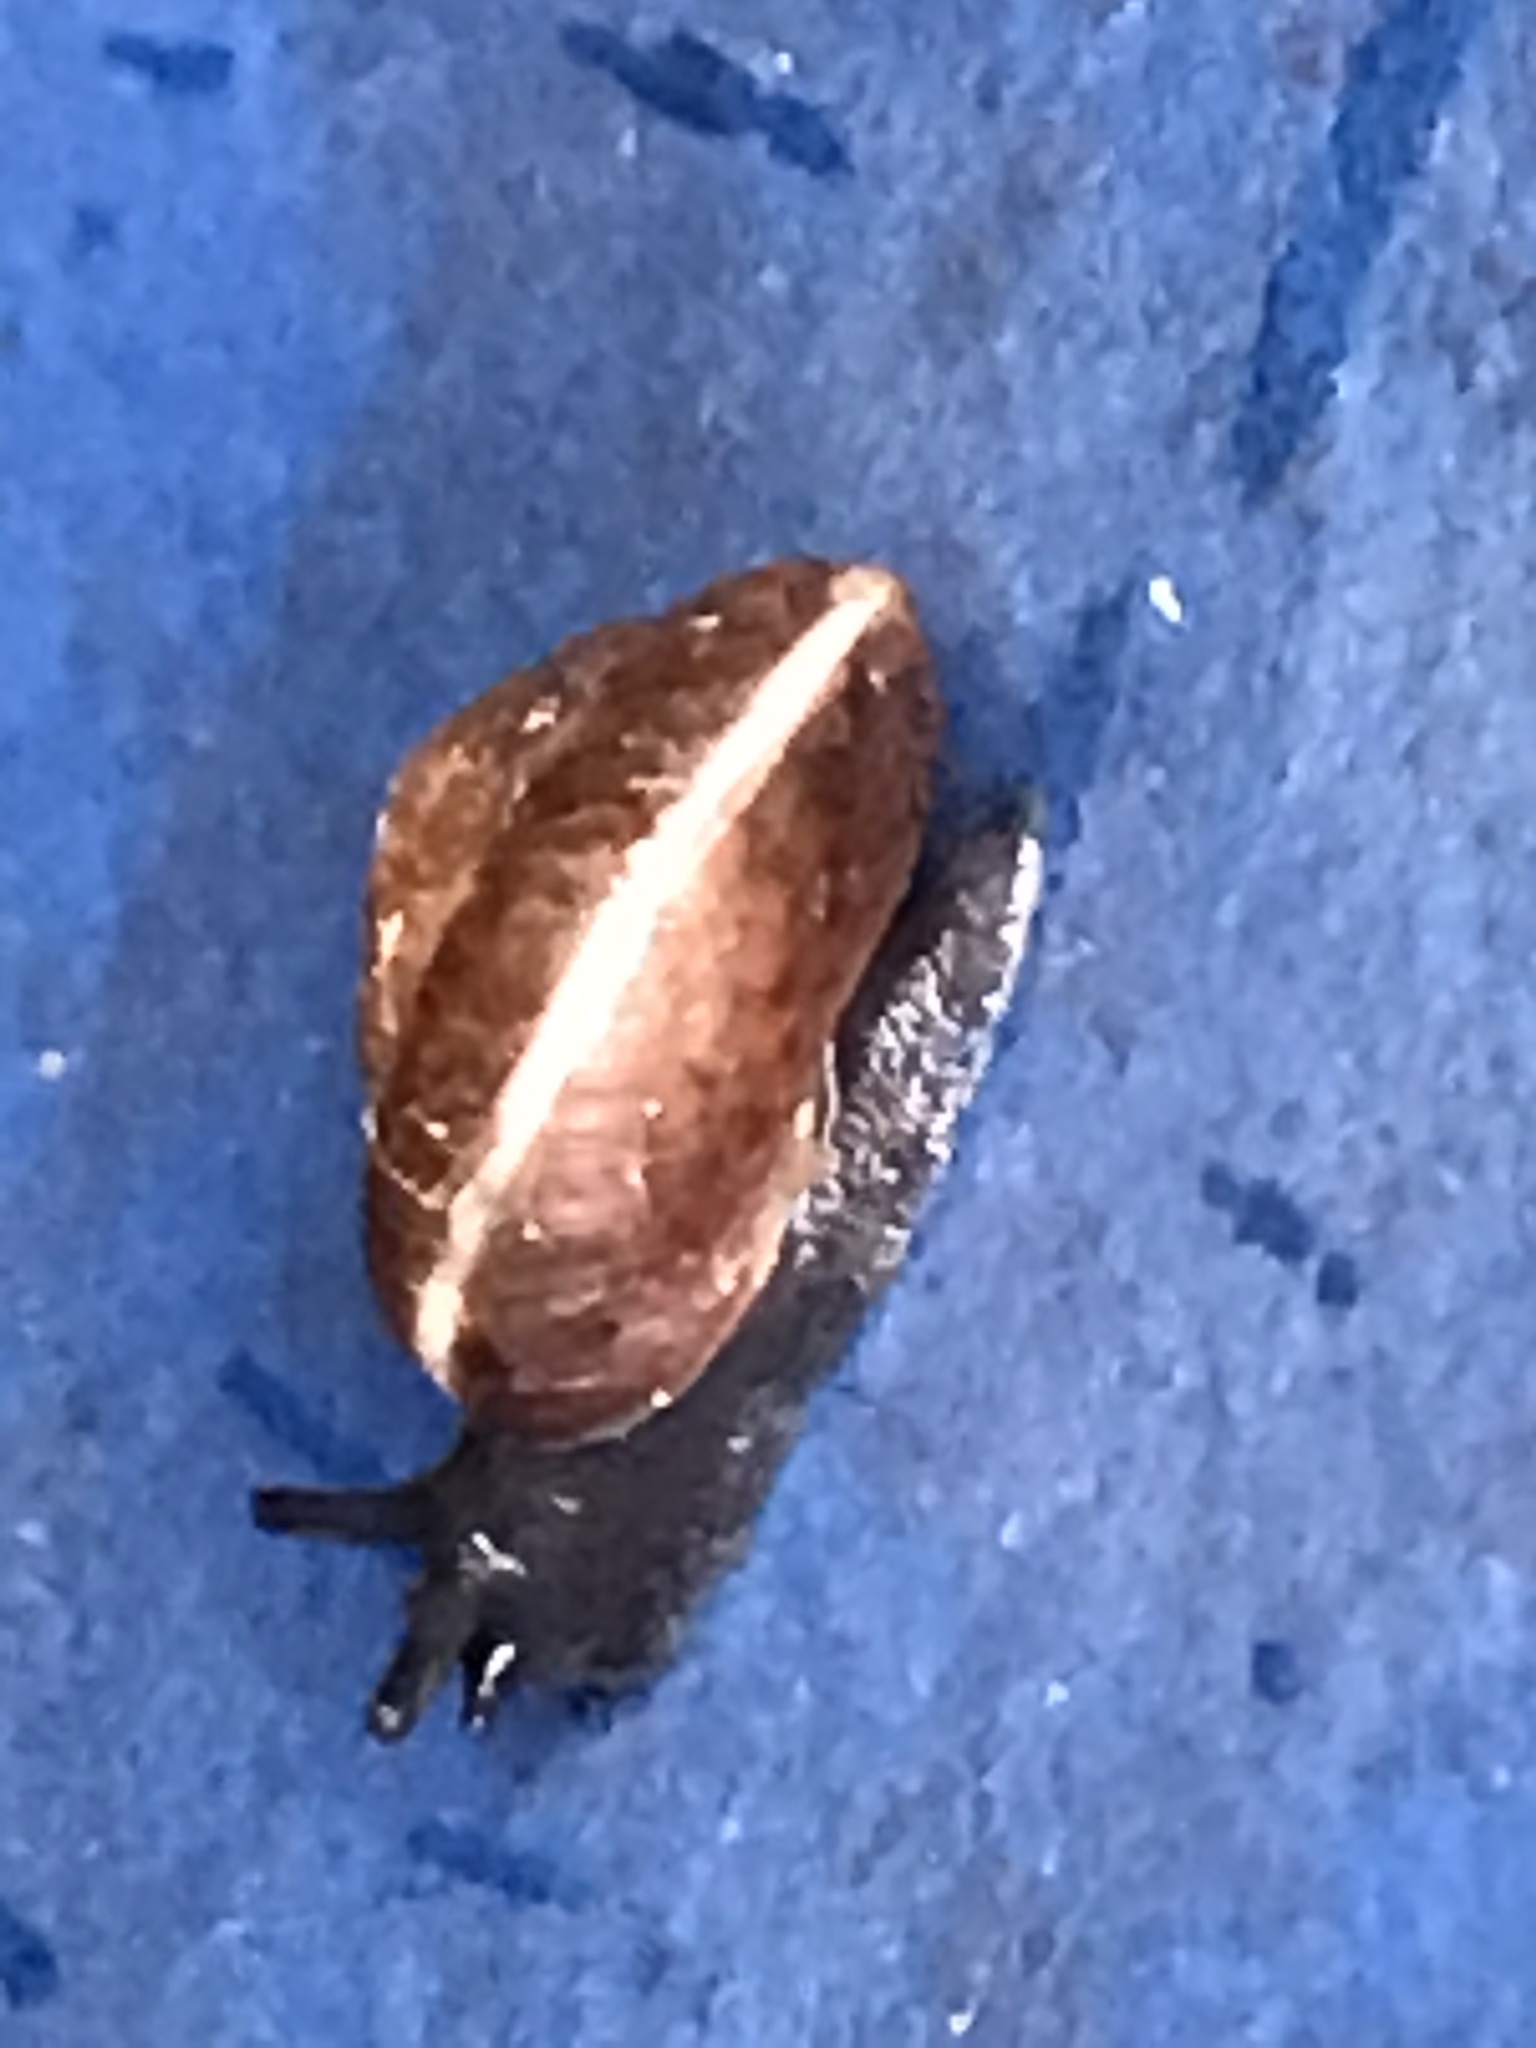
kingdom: Animalia
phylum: Mollusca
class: Gastropoda
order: Stylommatophora
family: Hygromiidae
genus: Hygromia
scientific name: Hygromia cinctella
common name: Girdled snail
